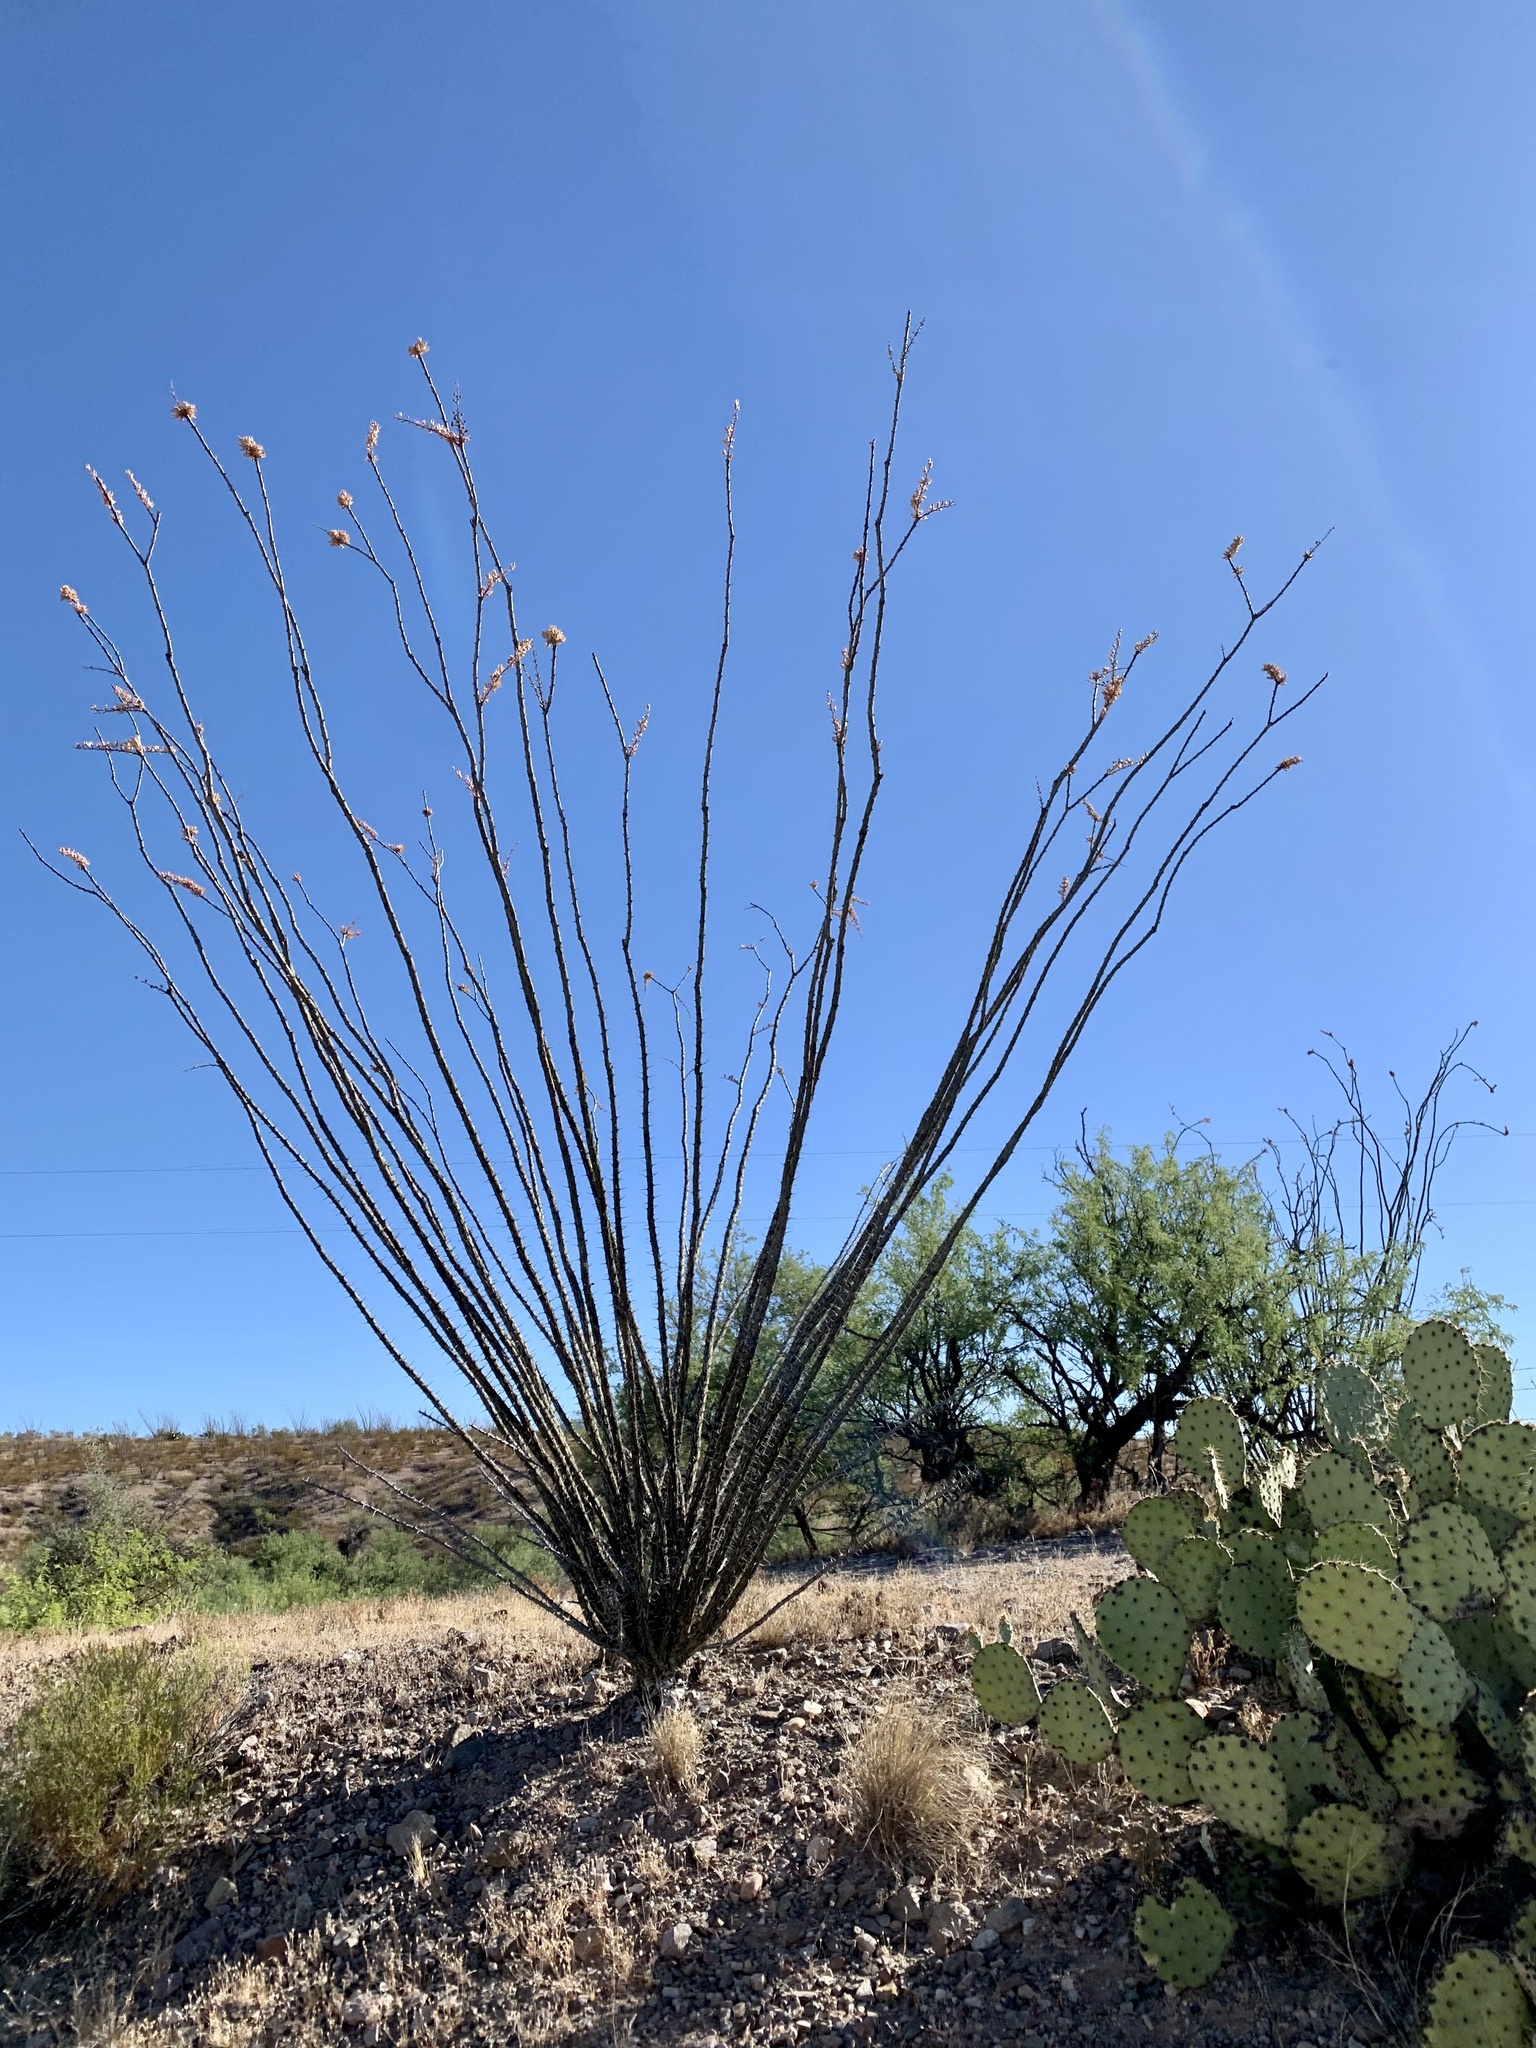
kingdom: Plantae
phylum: Tracheophyta
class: Magnoliopsida
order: Ericales
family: Fouquieriaceae
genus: Fouquieria
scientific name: Fouquieria splendens
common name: Vine-cactus
